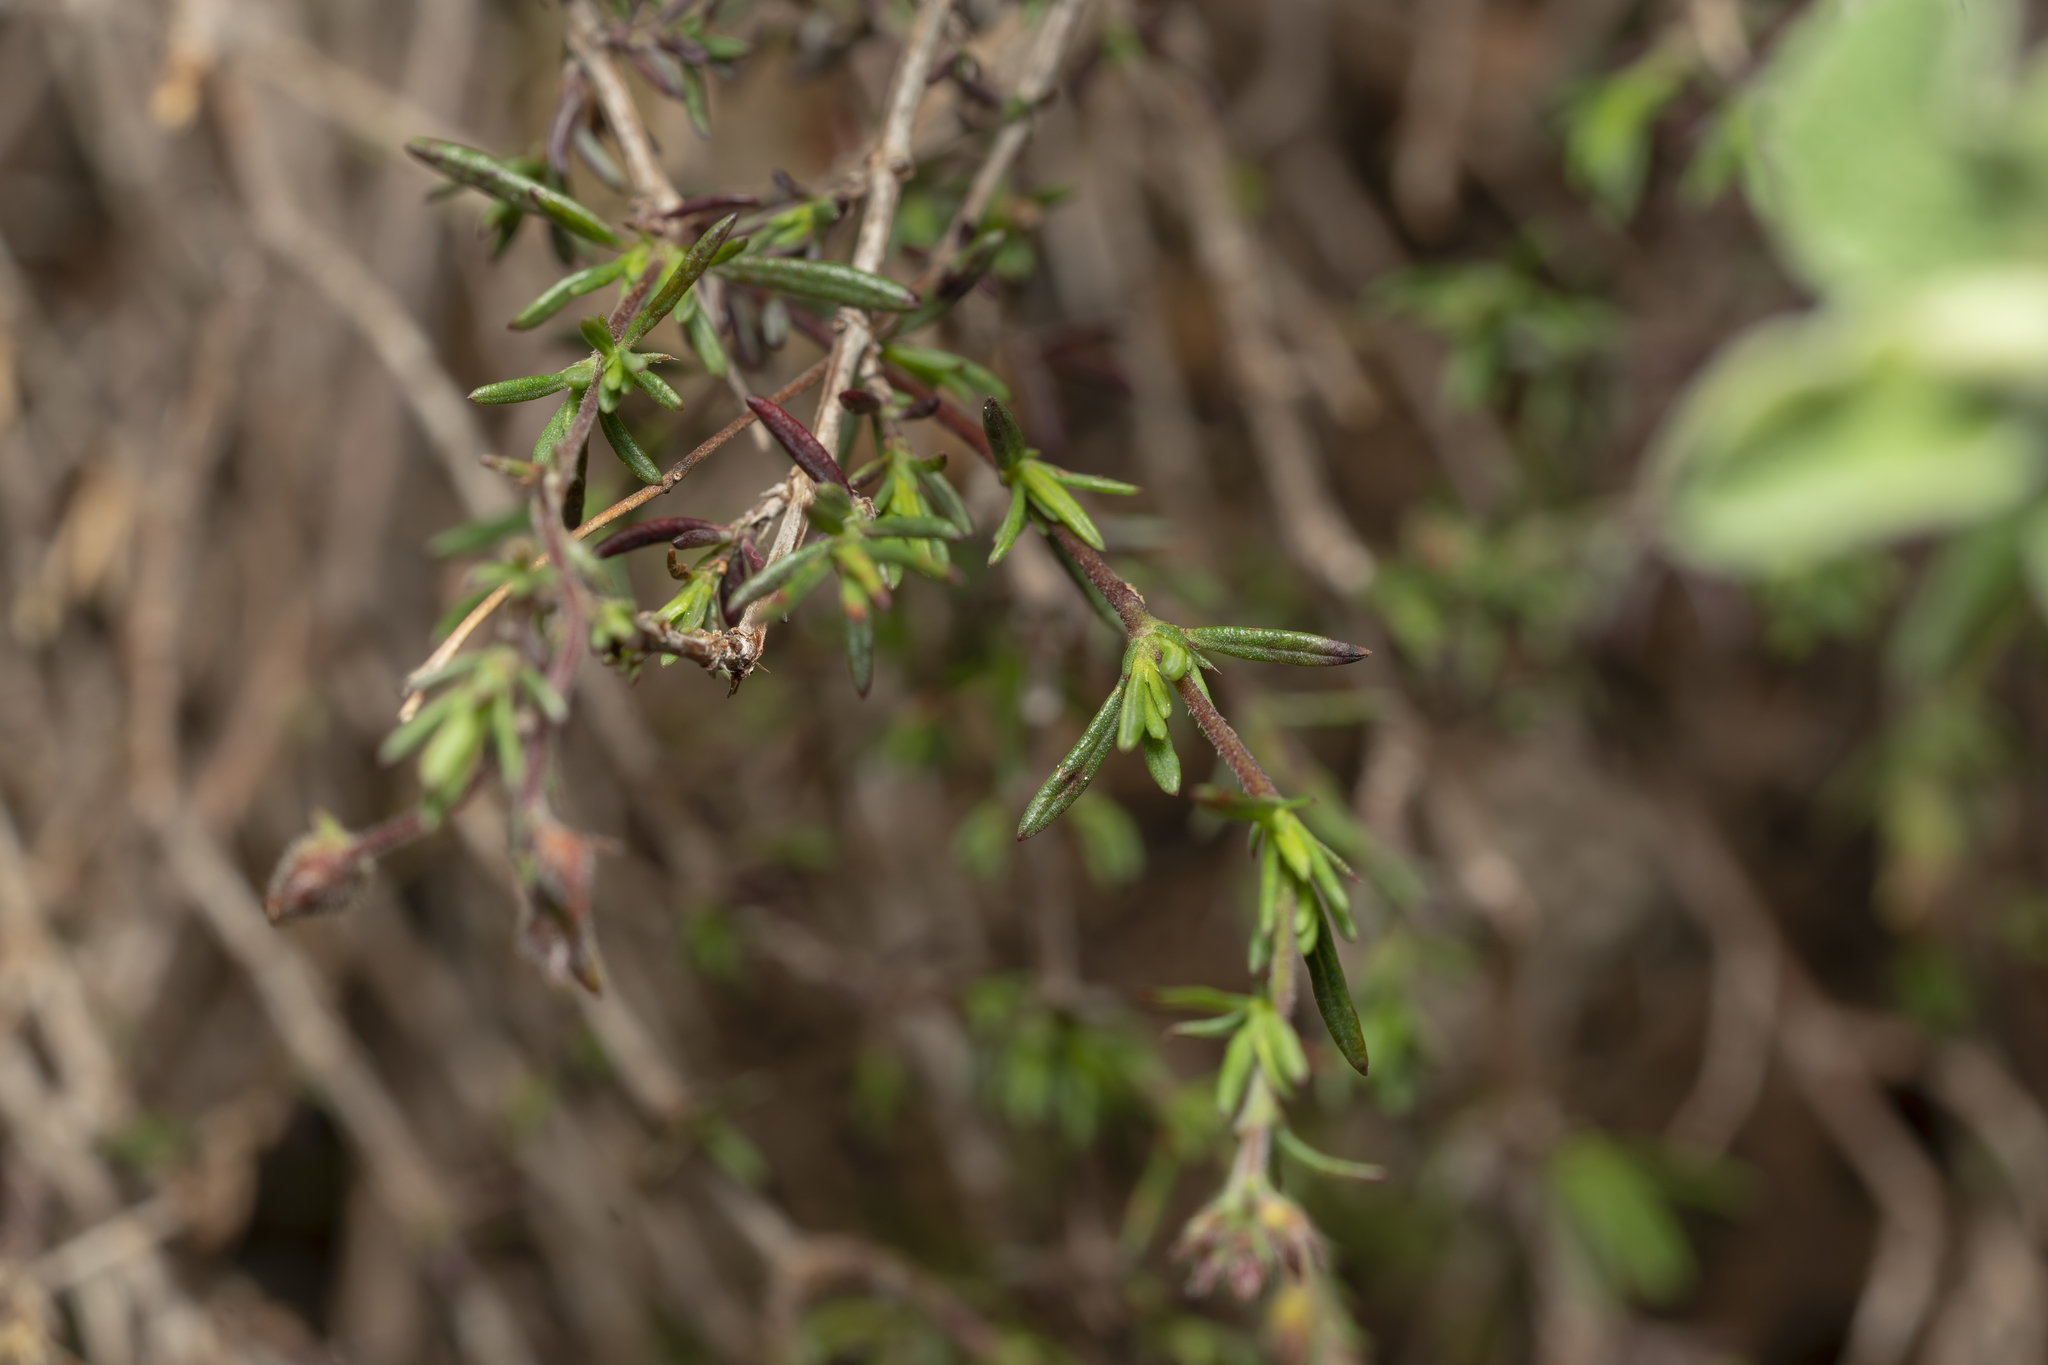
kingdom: Plantae
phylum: Tracheophyta
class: Magnoliopsida
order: Malvales
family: Cistaceae
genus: Fumana
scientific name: Fumana laevis
